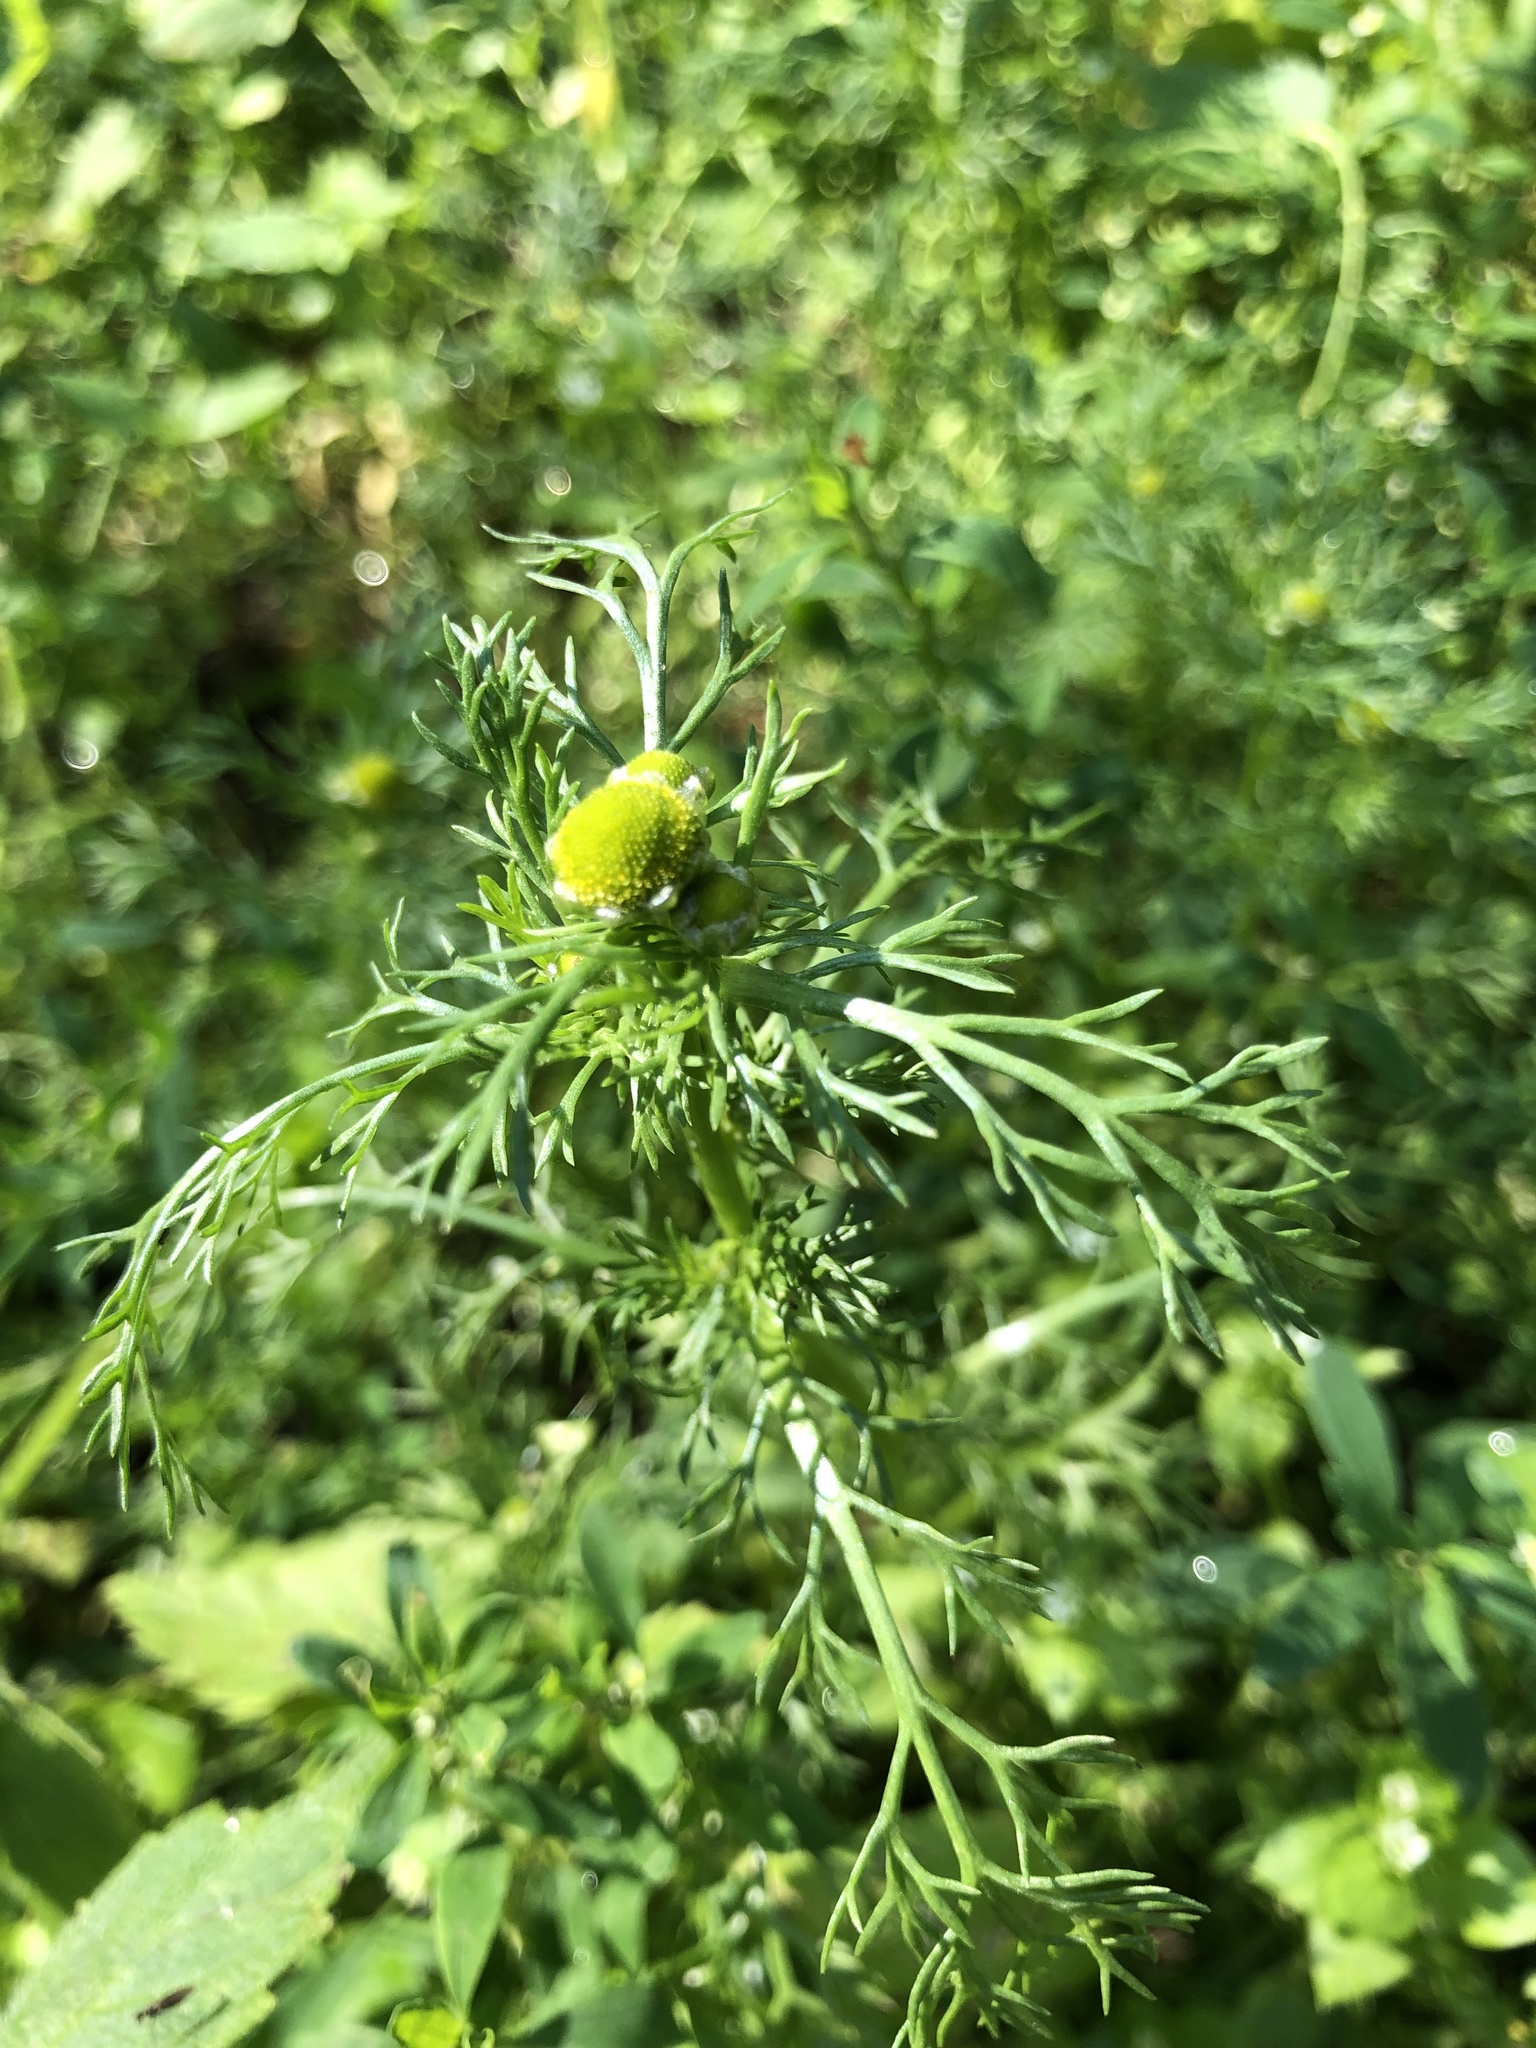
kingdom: Plantae
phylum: Tracheophyta
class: Magnoliopsida
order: Asterales
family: Asteraceae
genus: Matricaria
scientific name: Matricaria discoidea
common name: Disc mayweed
